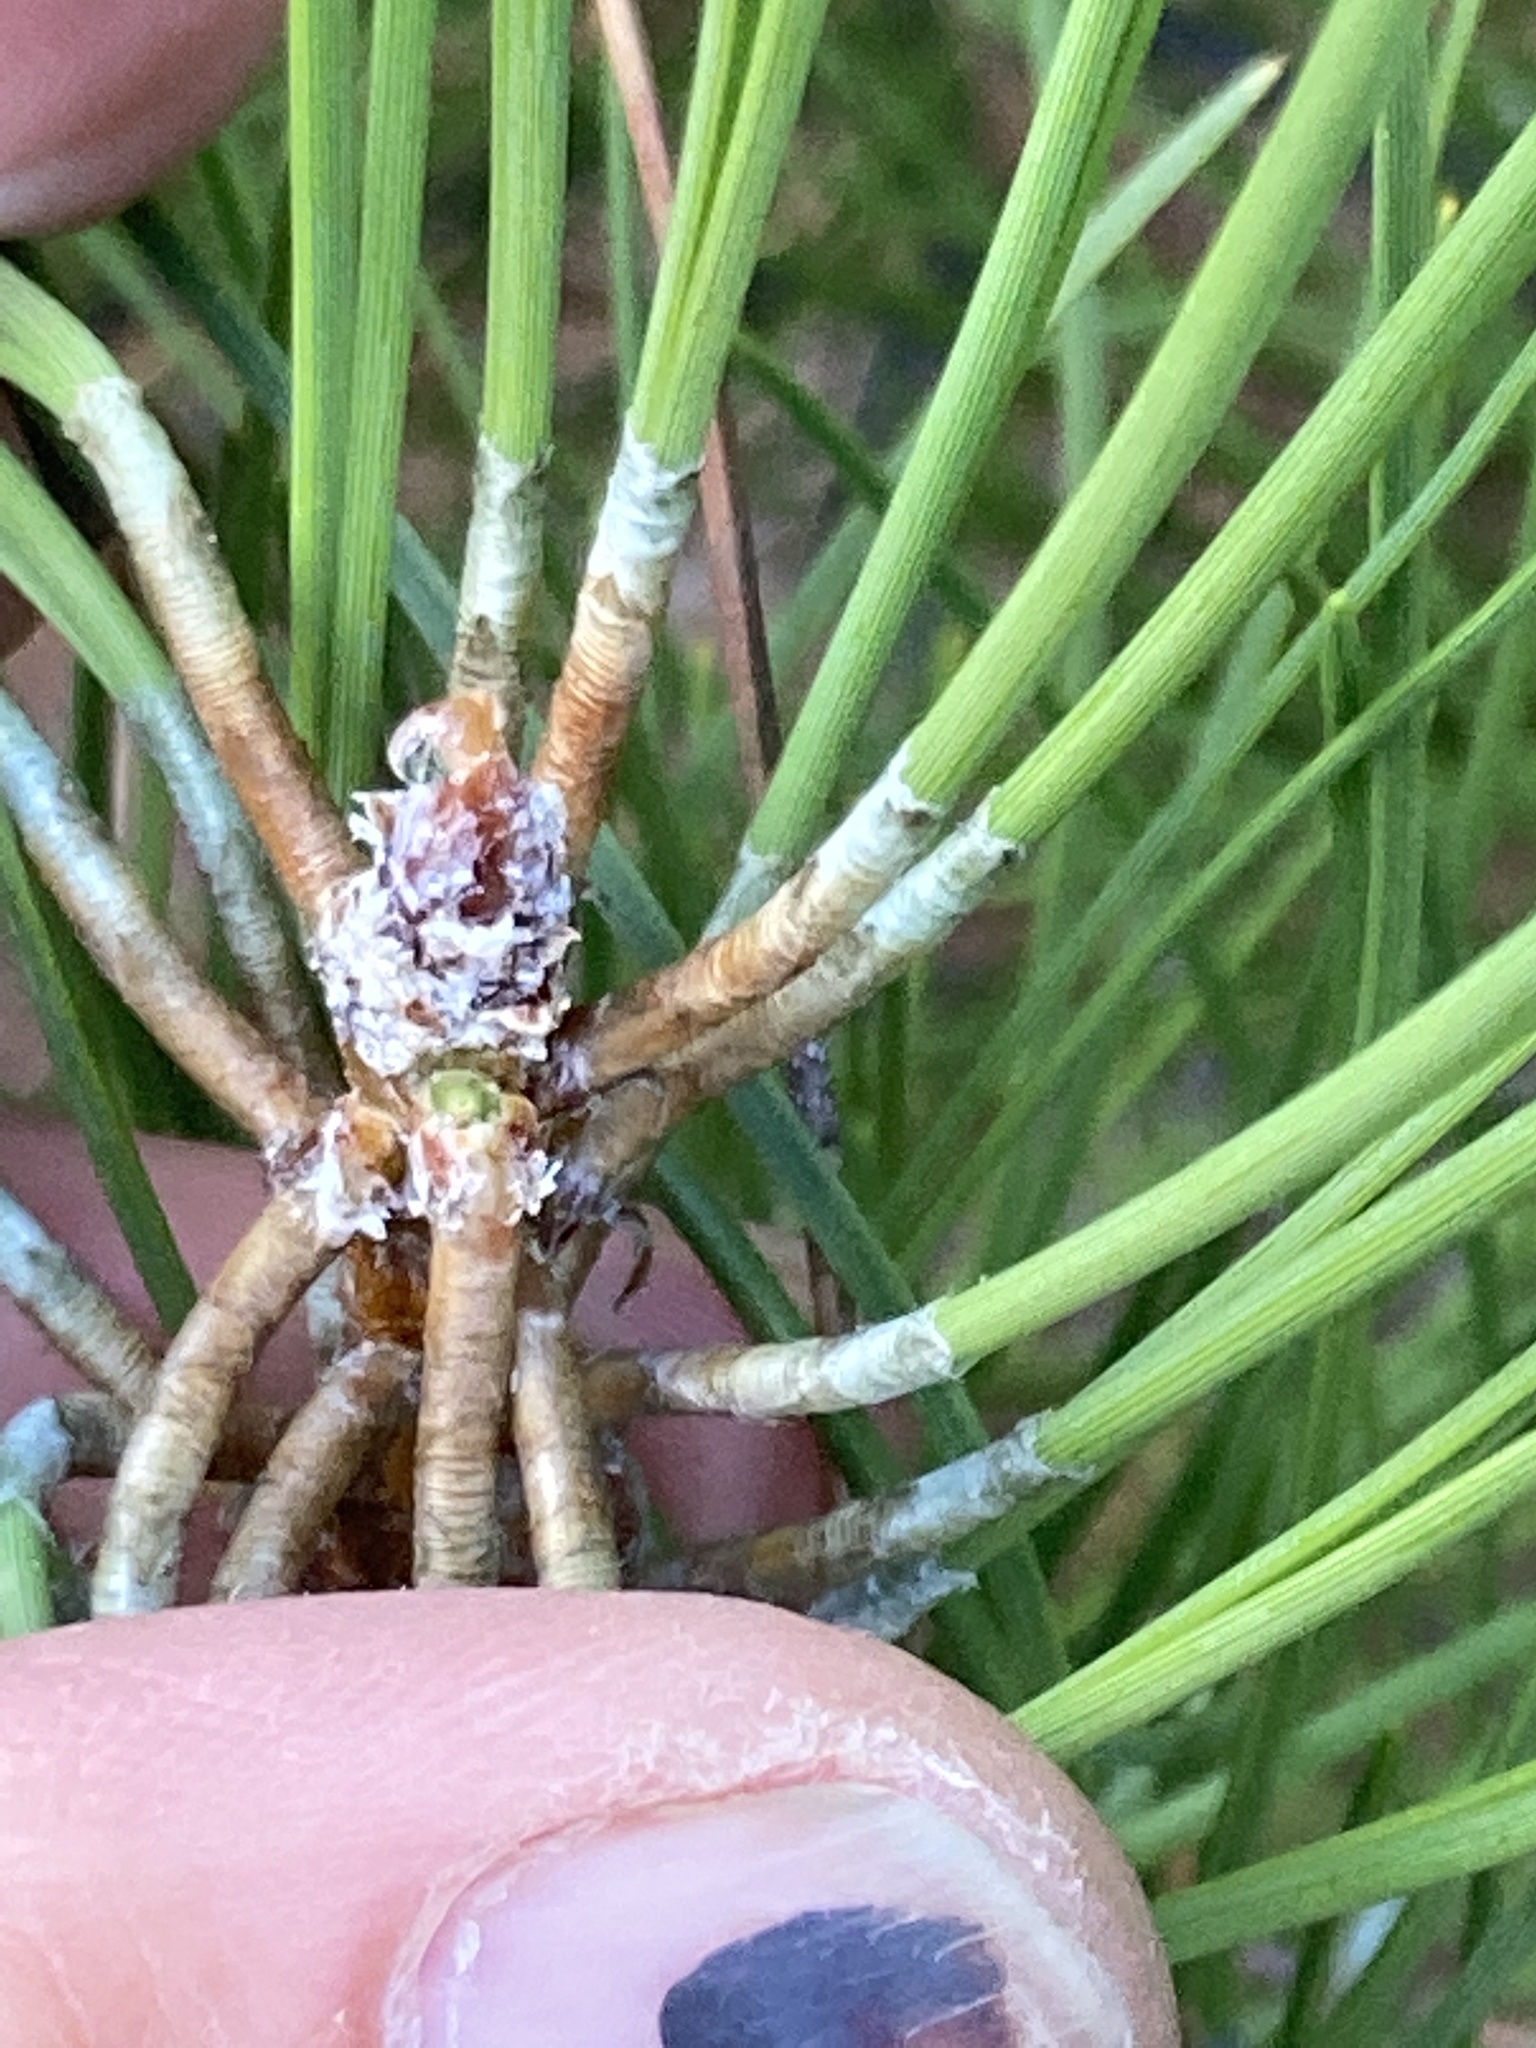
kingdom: Plantae
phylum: Tracheophyta
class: Pinopsida
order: Pinales
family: Pinaceae
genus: Pinus
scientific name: Pinus nigra
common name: Austrian pine
